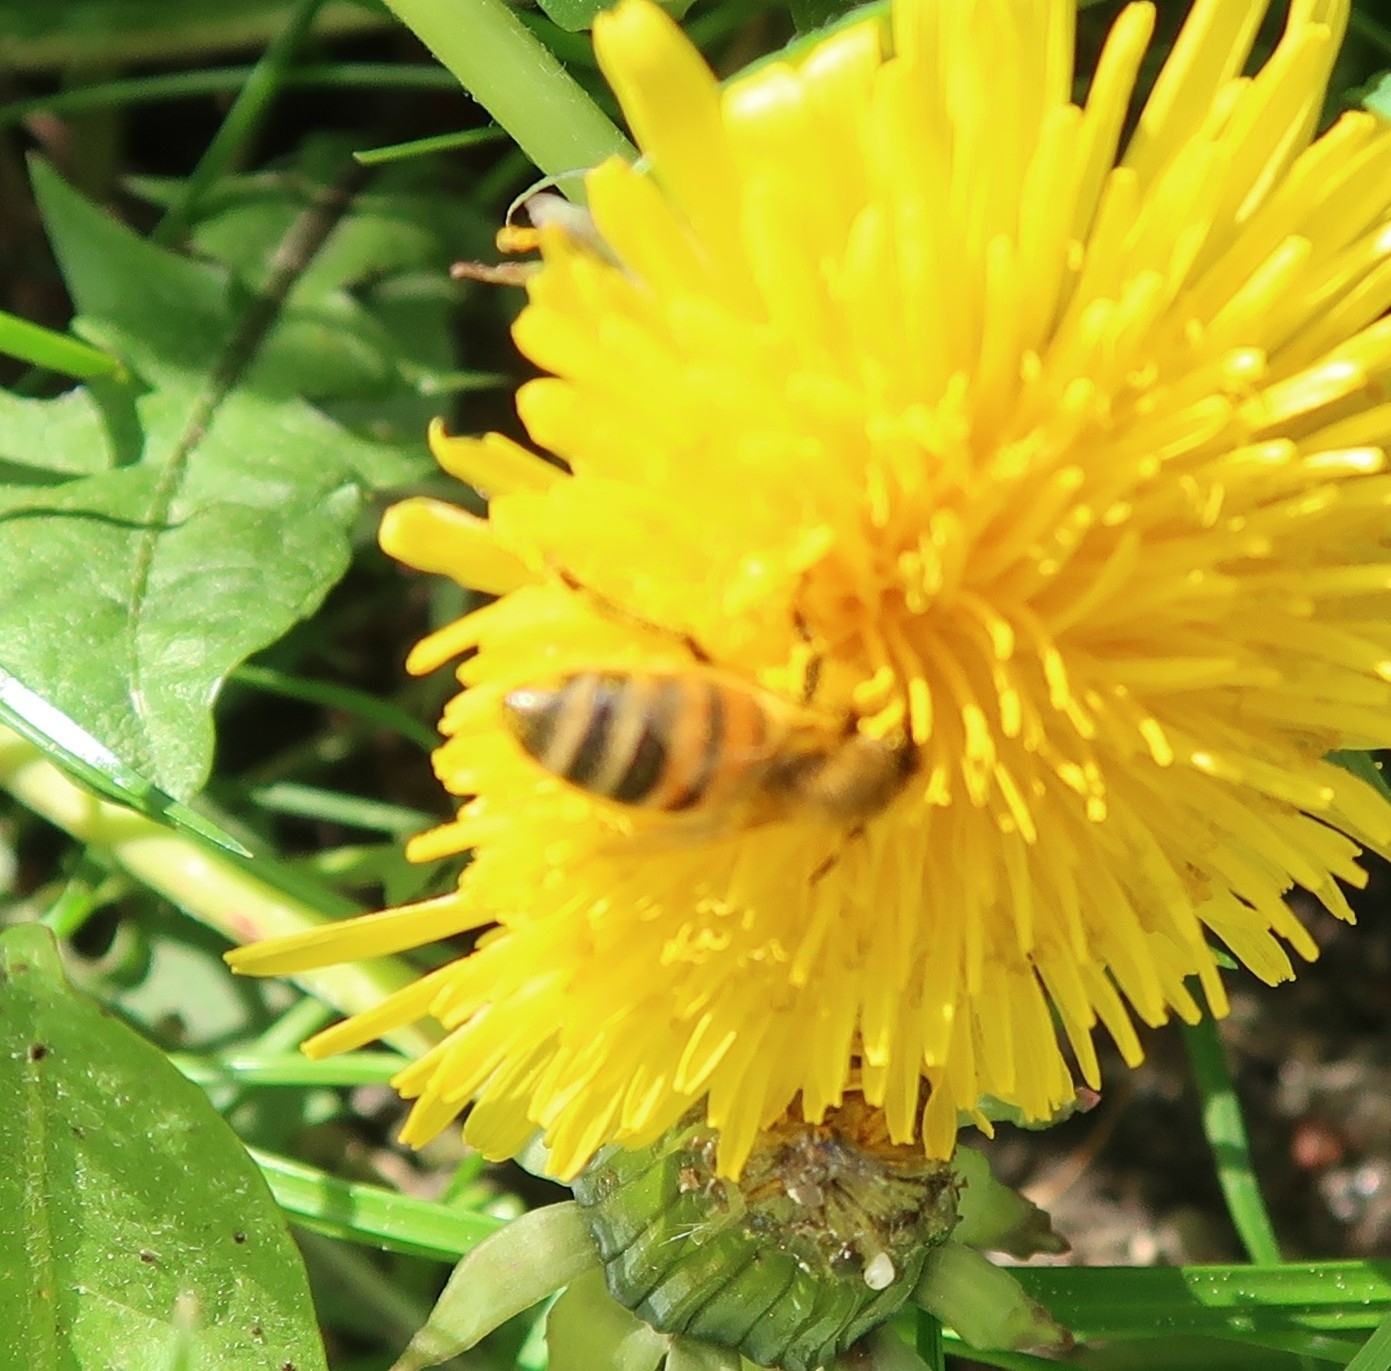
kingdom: Animalia
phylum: Arthropoda
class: Insecta
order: Hymenoptera
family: Apidae
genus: Apis
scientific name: Apis mellifera
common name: Honey bee
